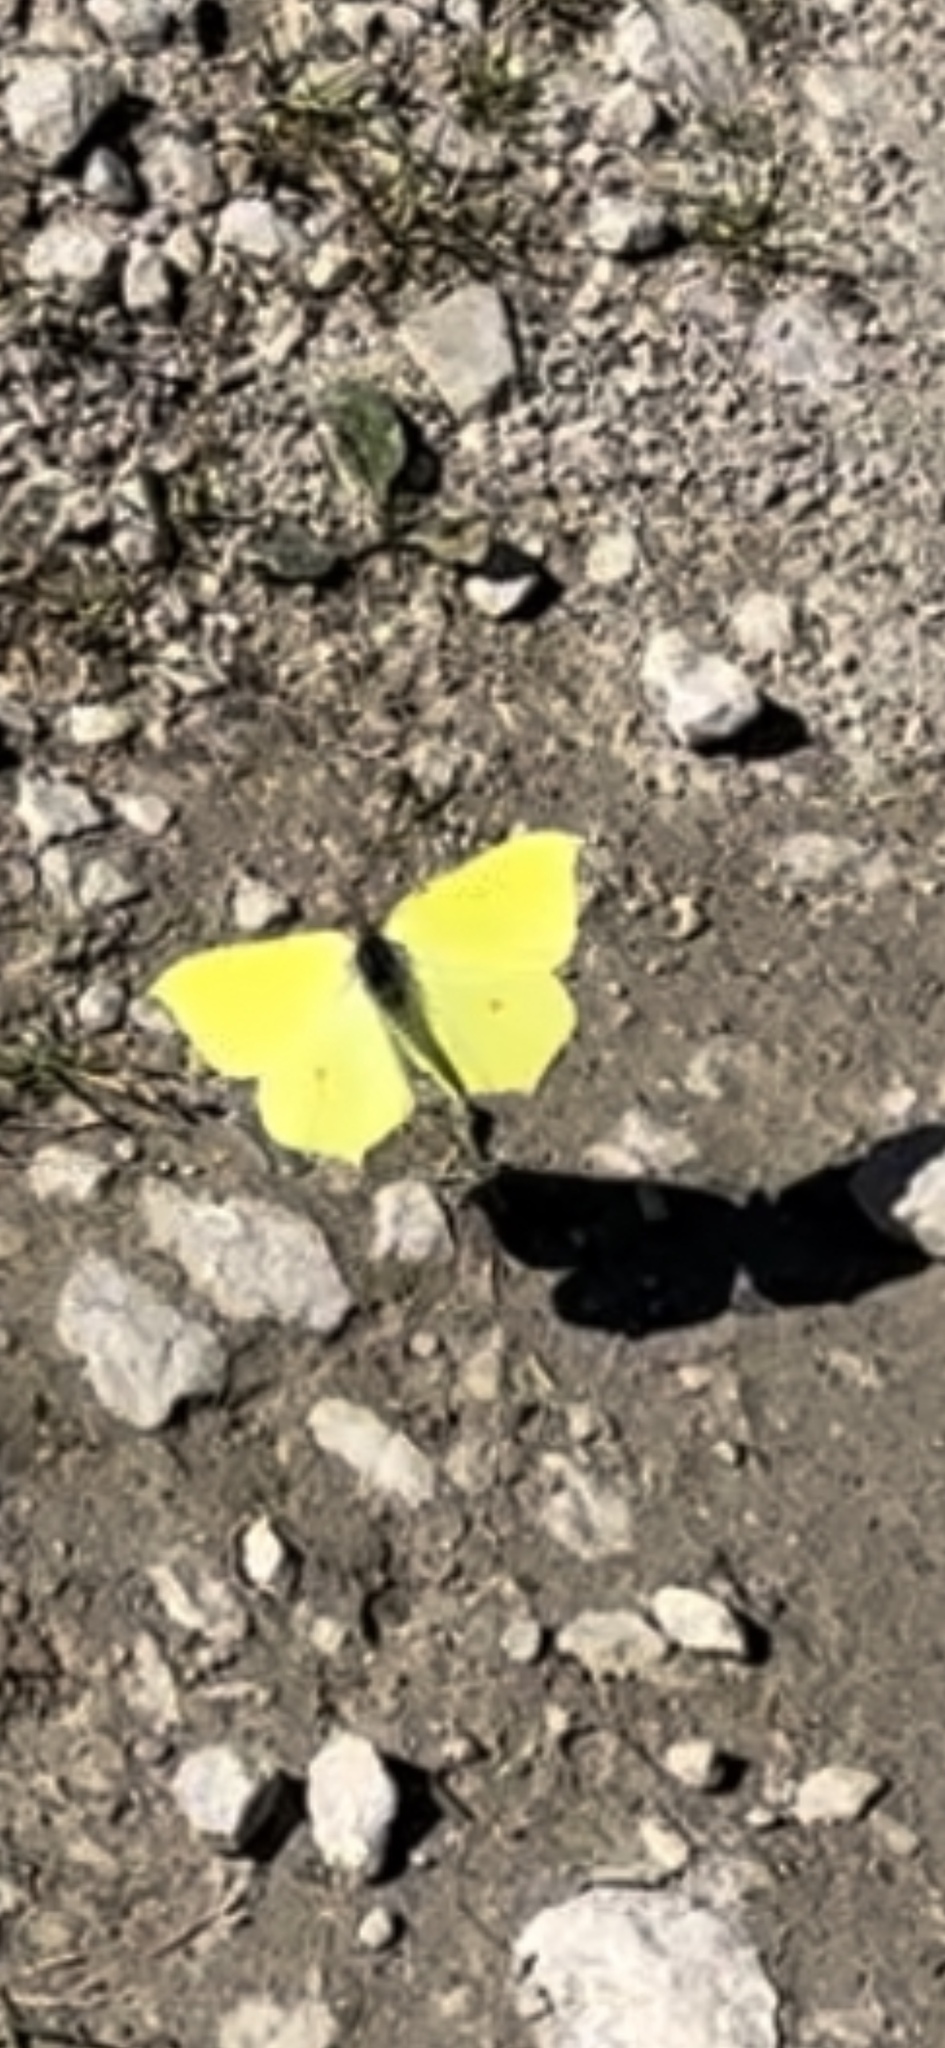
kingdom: Animalia
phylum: Arthropoda
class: Insecta
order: Lepidoptera
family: Pieridae
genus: Gonepteryx
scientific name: Gonepteryx rhamni
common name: Brimstone
